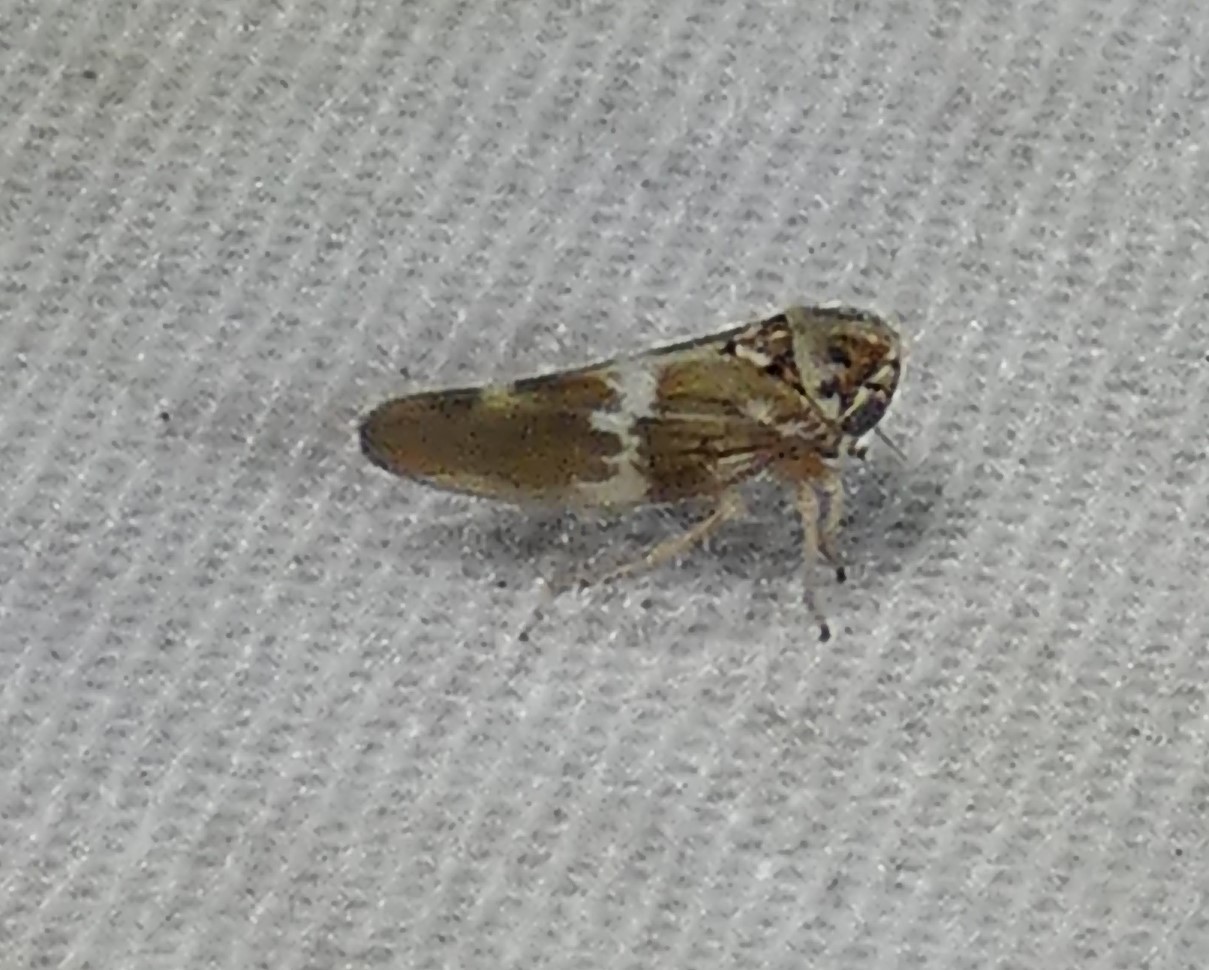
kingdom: Animalia
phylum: Arthropoda
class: Insecta
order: Hemiptera
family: Cicadellidae
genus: Agalliopsis
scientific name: Agalliopsis cervina
